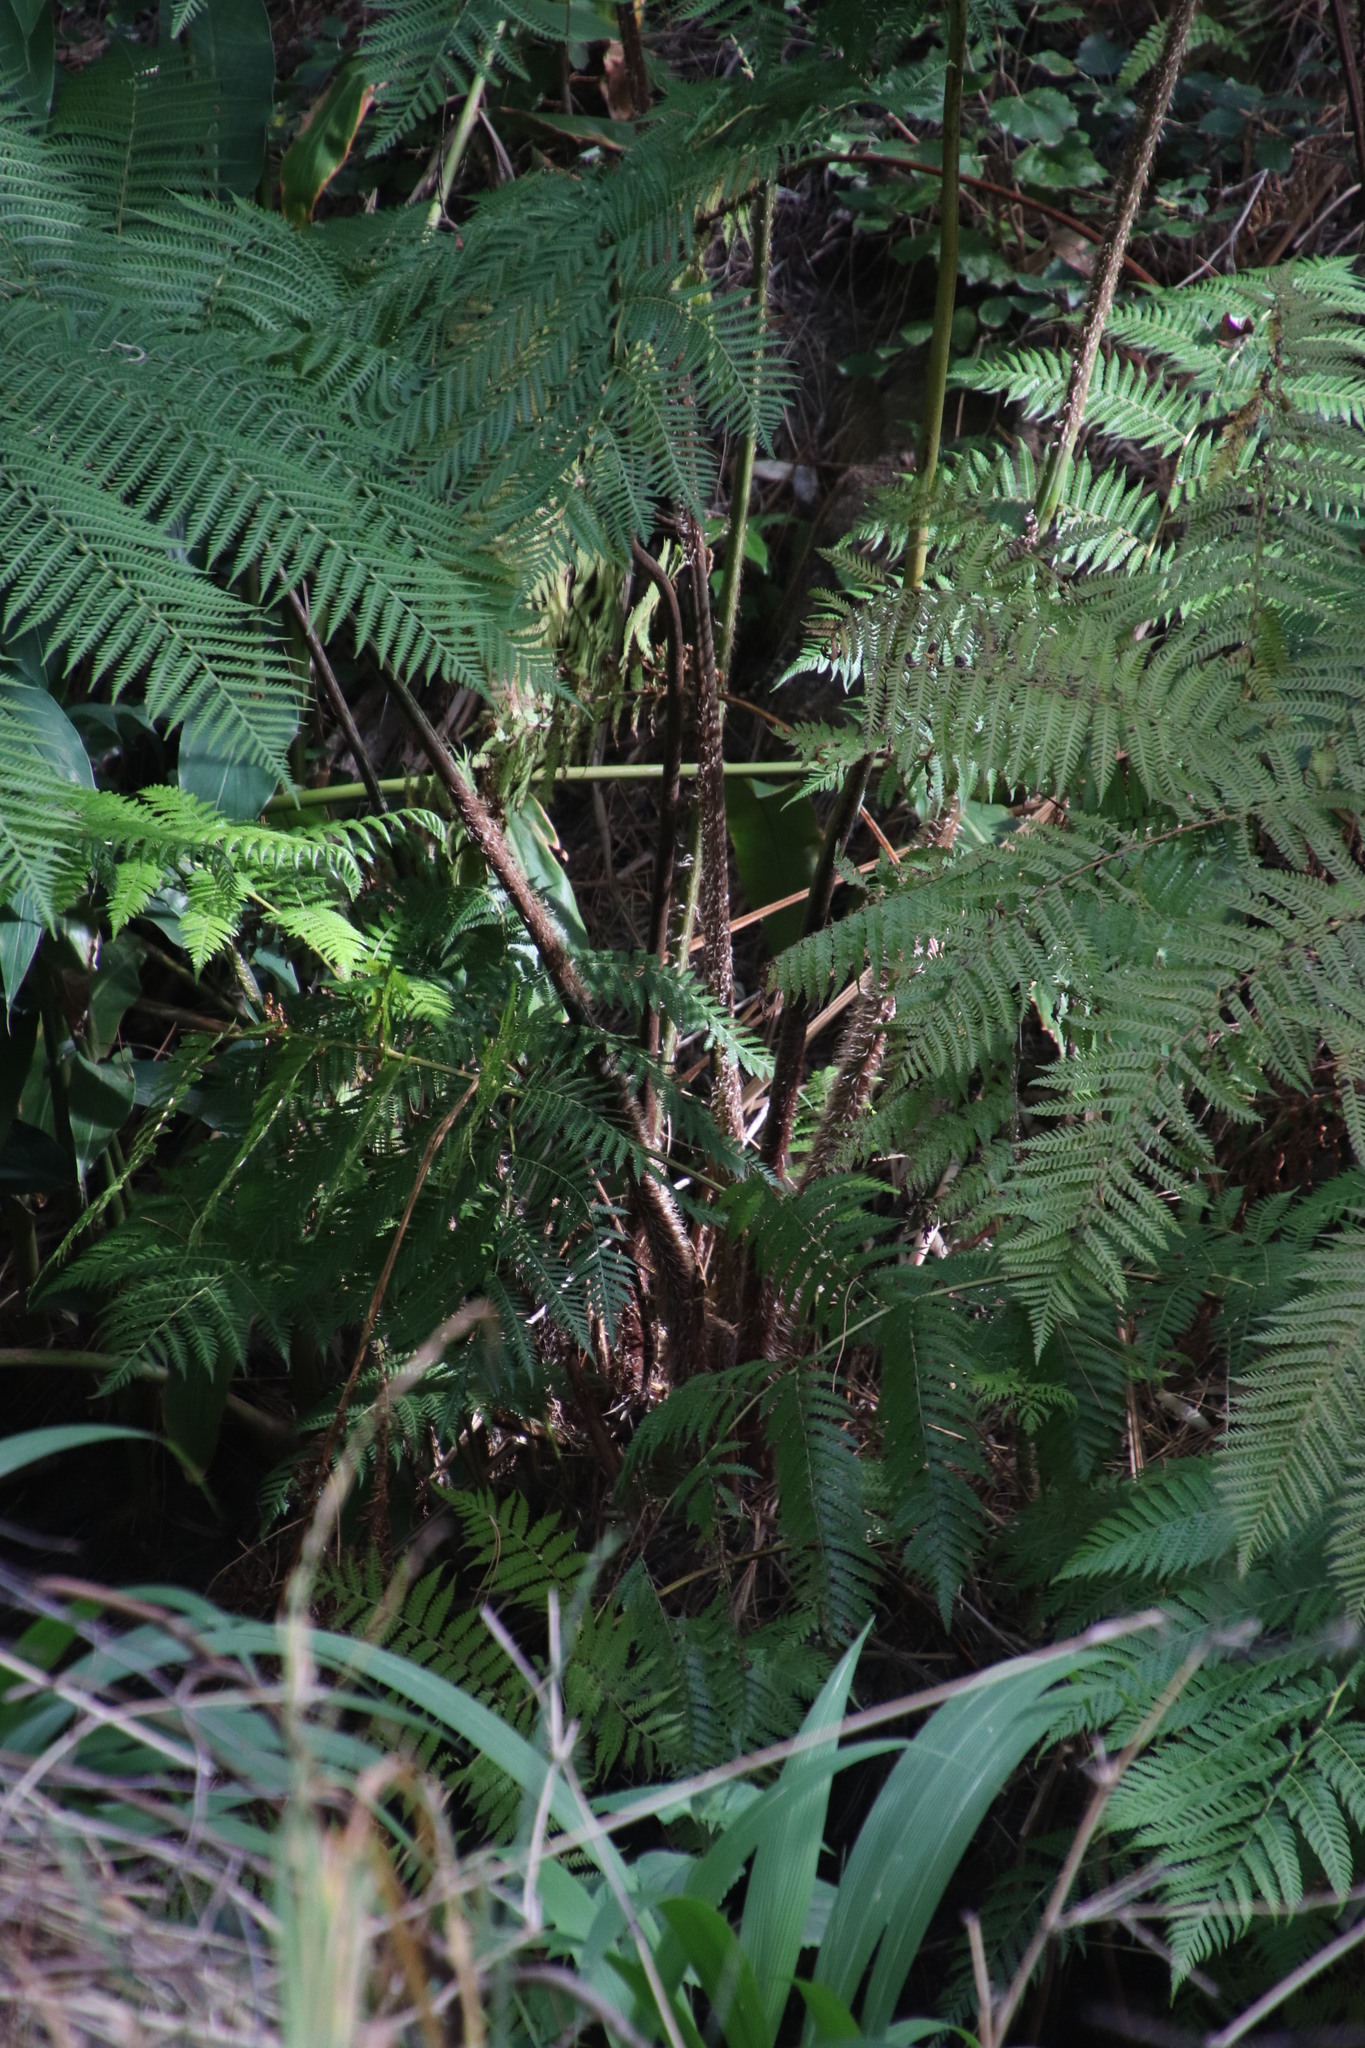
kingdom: Plantae
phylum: Tracheophyta
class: Polypodiopsida
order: Cyatheales
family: Cyatheaceae
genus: Sphaeropteris
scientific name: Sphaeropteris cooperi
